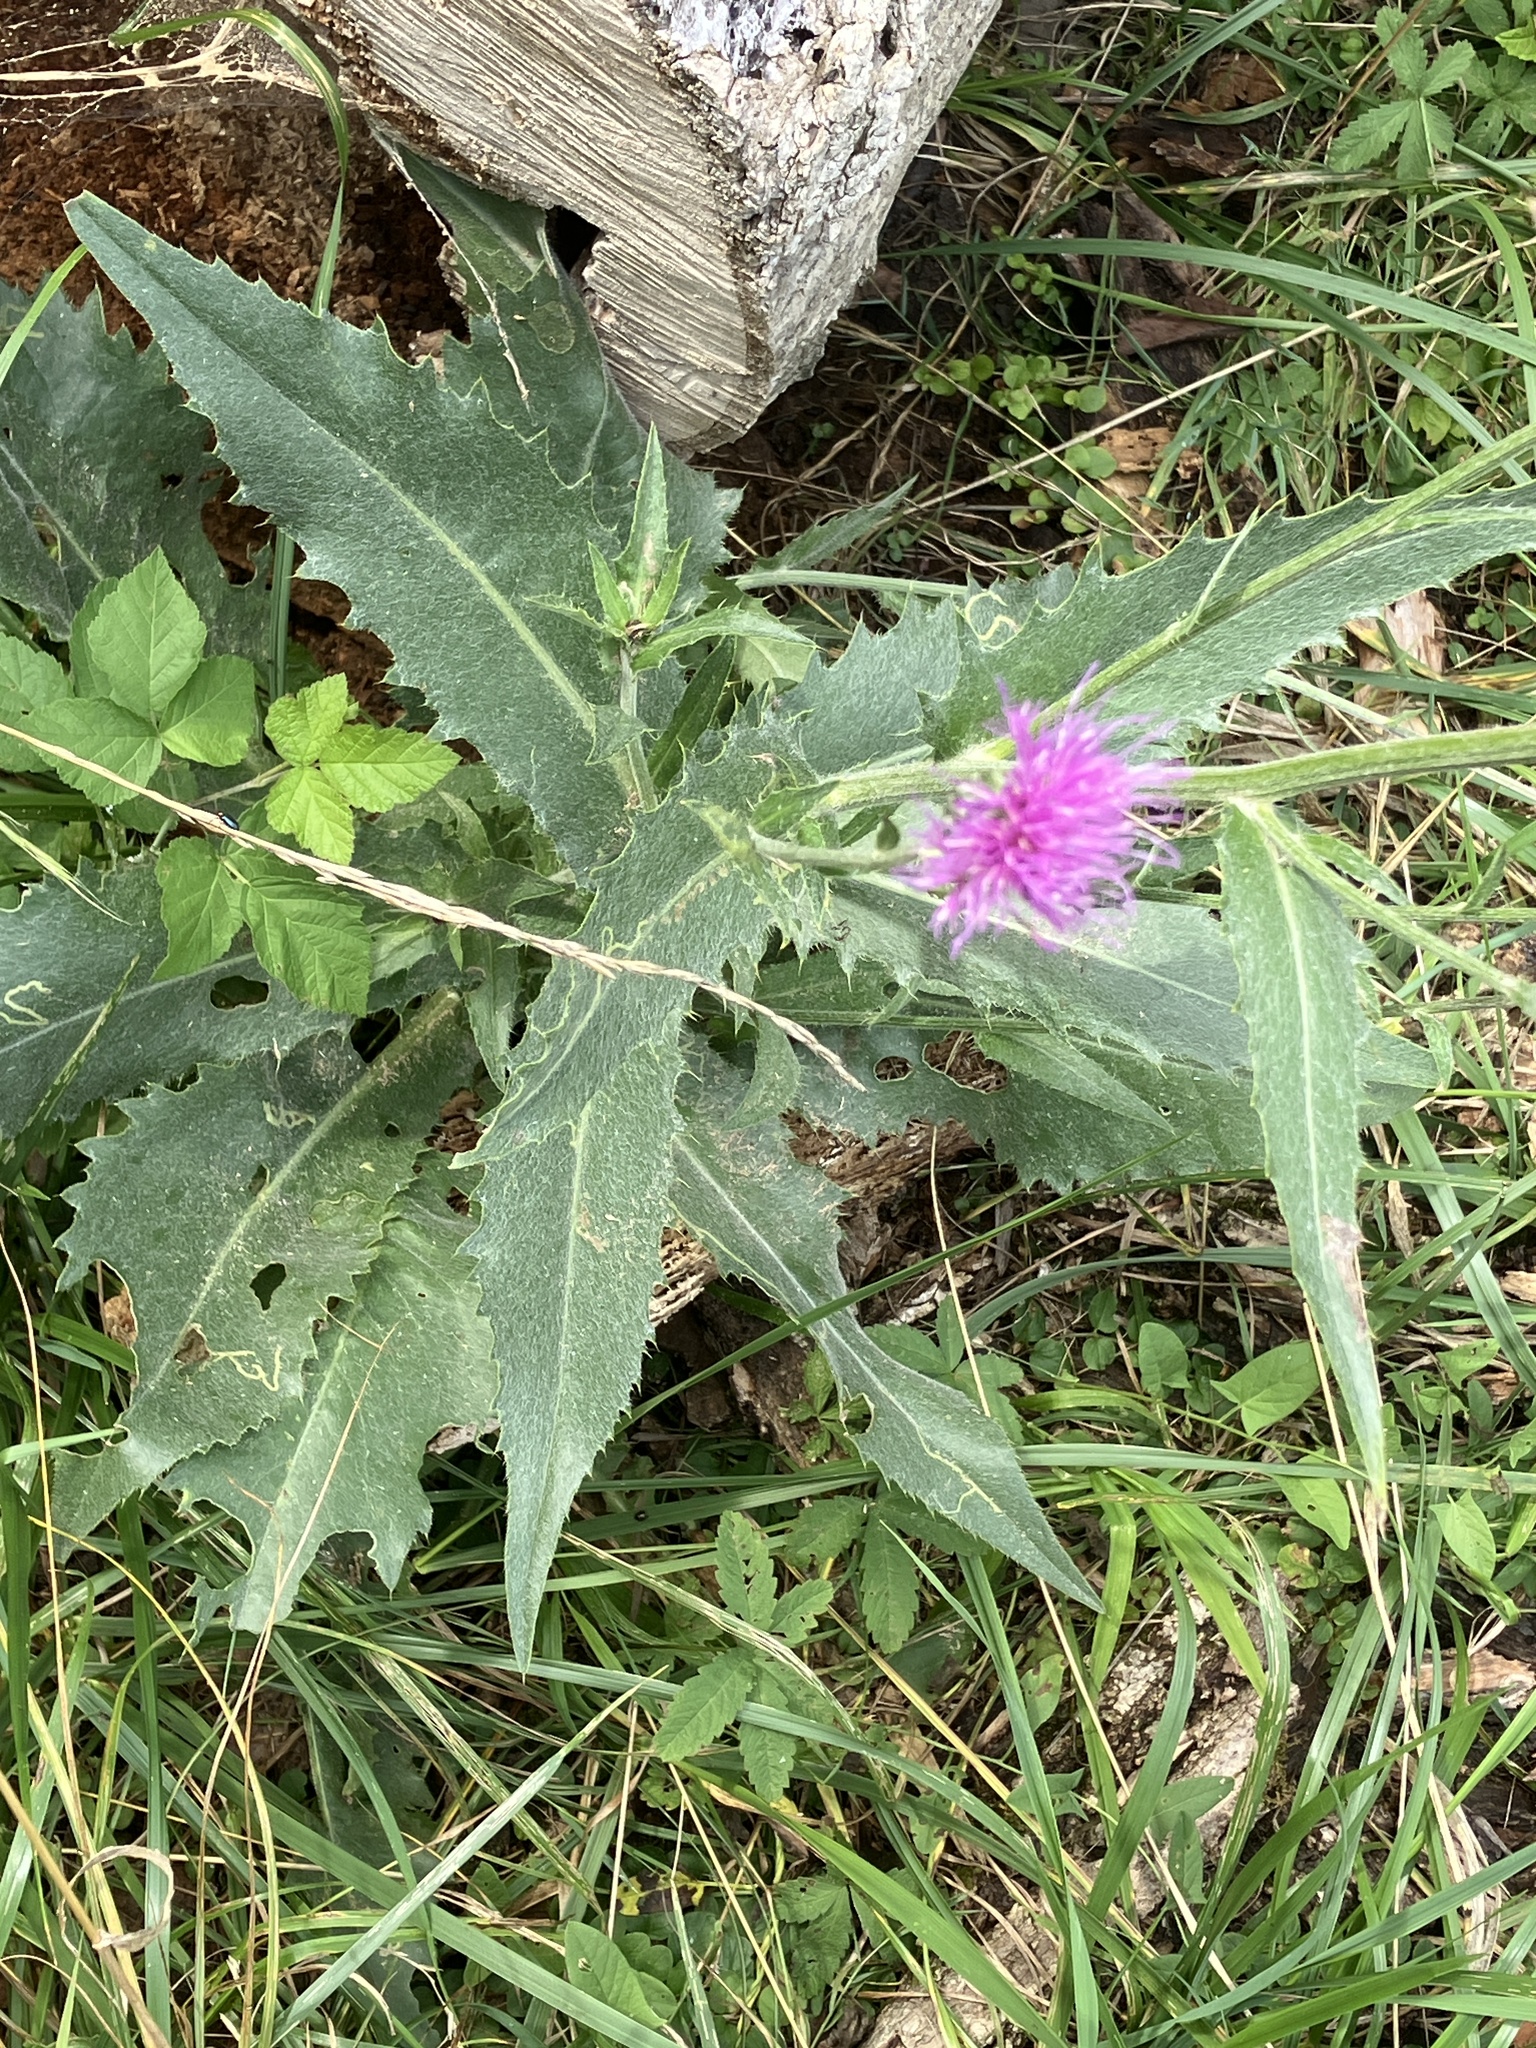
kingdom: Plantae
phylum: Tracheophyta
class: Magnoliopsida
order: Asterales
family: Asteraceae
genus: Cirsium
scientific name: Cirsium canum
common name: Queen anne's thistle
